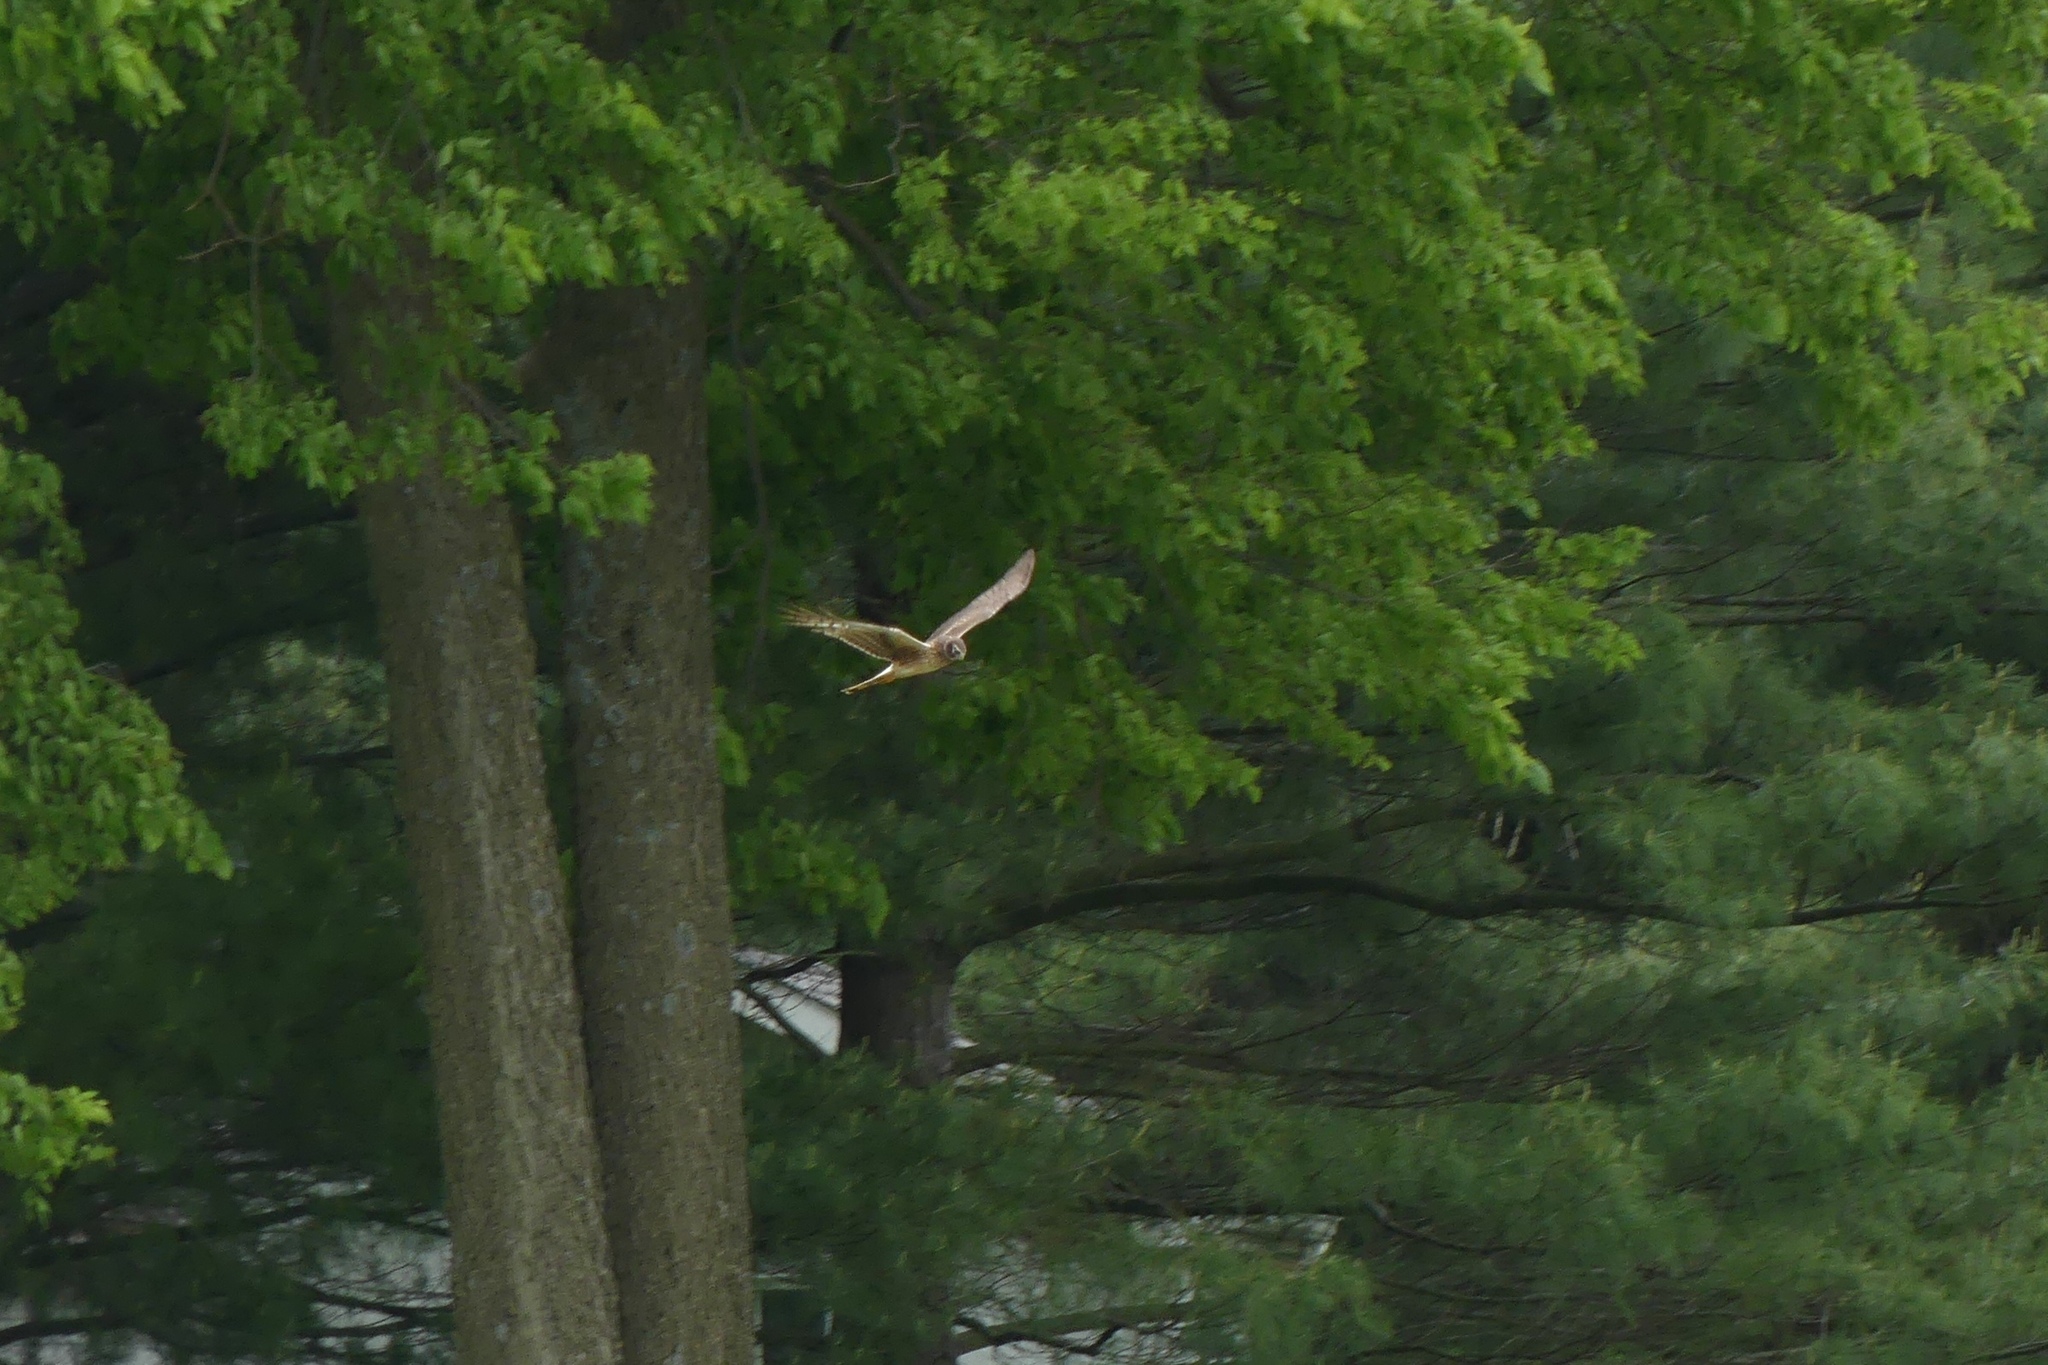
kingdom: Animalia
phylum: Chordata
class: Aves
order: Accipitriformes
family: Accipitridae
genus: Circus
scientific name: Circus cyaneus
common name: Hen harrier
